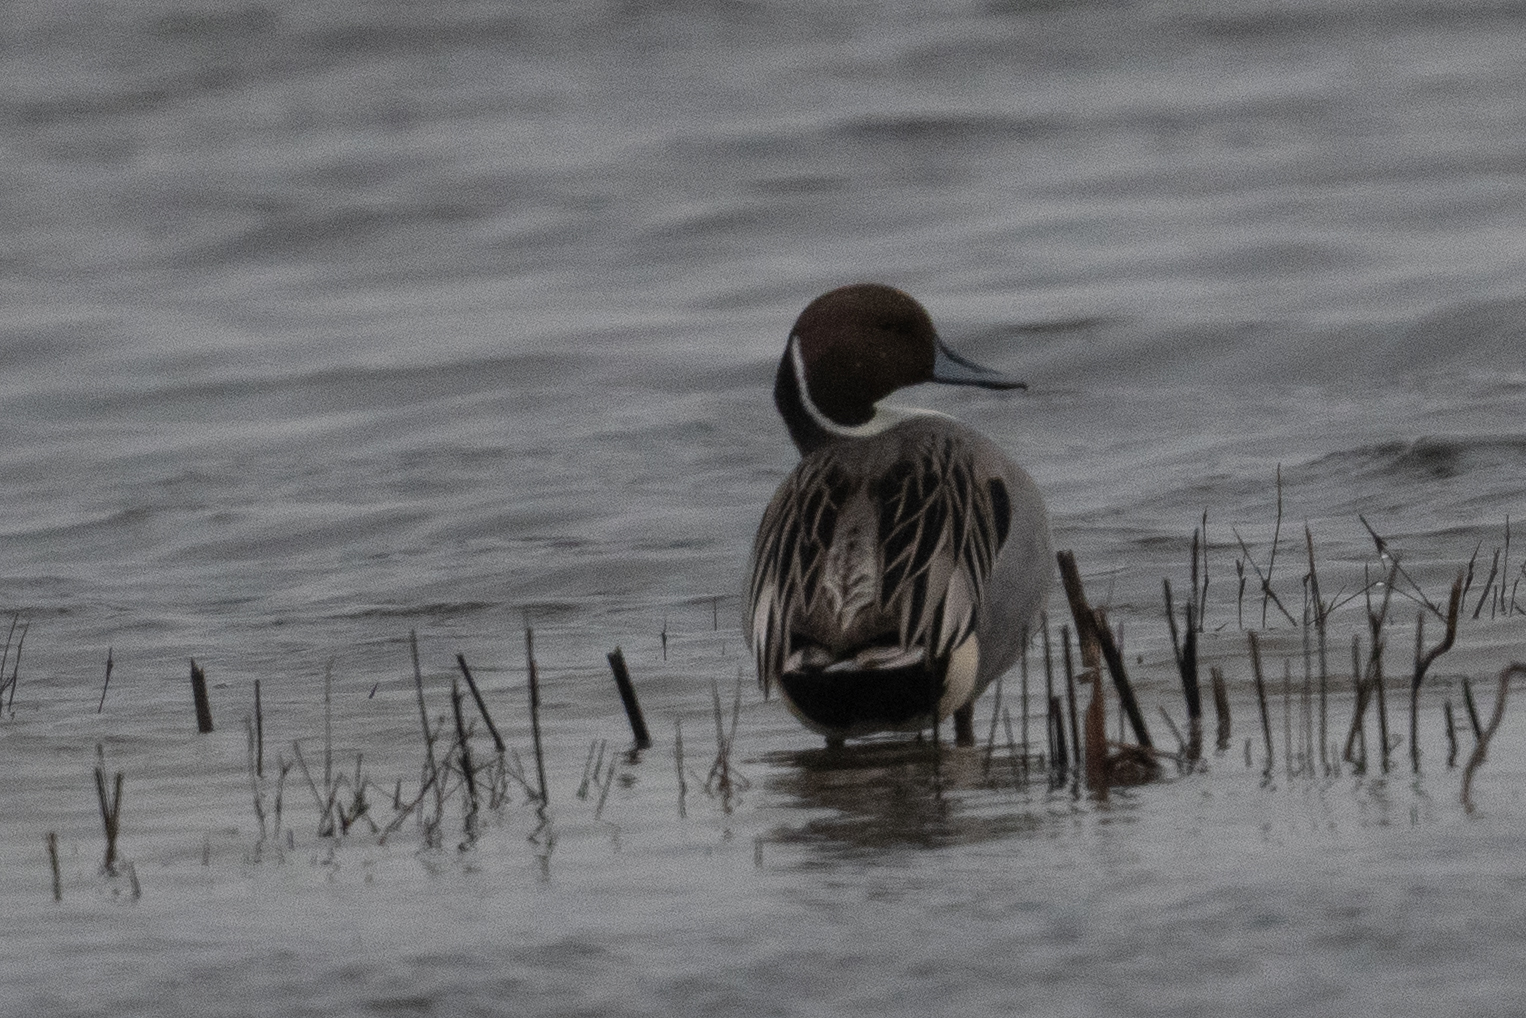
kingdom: Animalia
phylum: Chordata
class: Aves
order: Anseriformes
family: Anatidae
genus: Anas
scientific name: Anas acuta
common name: Northern pintail
